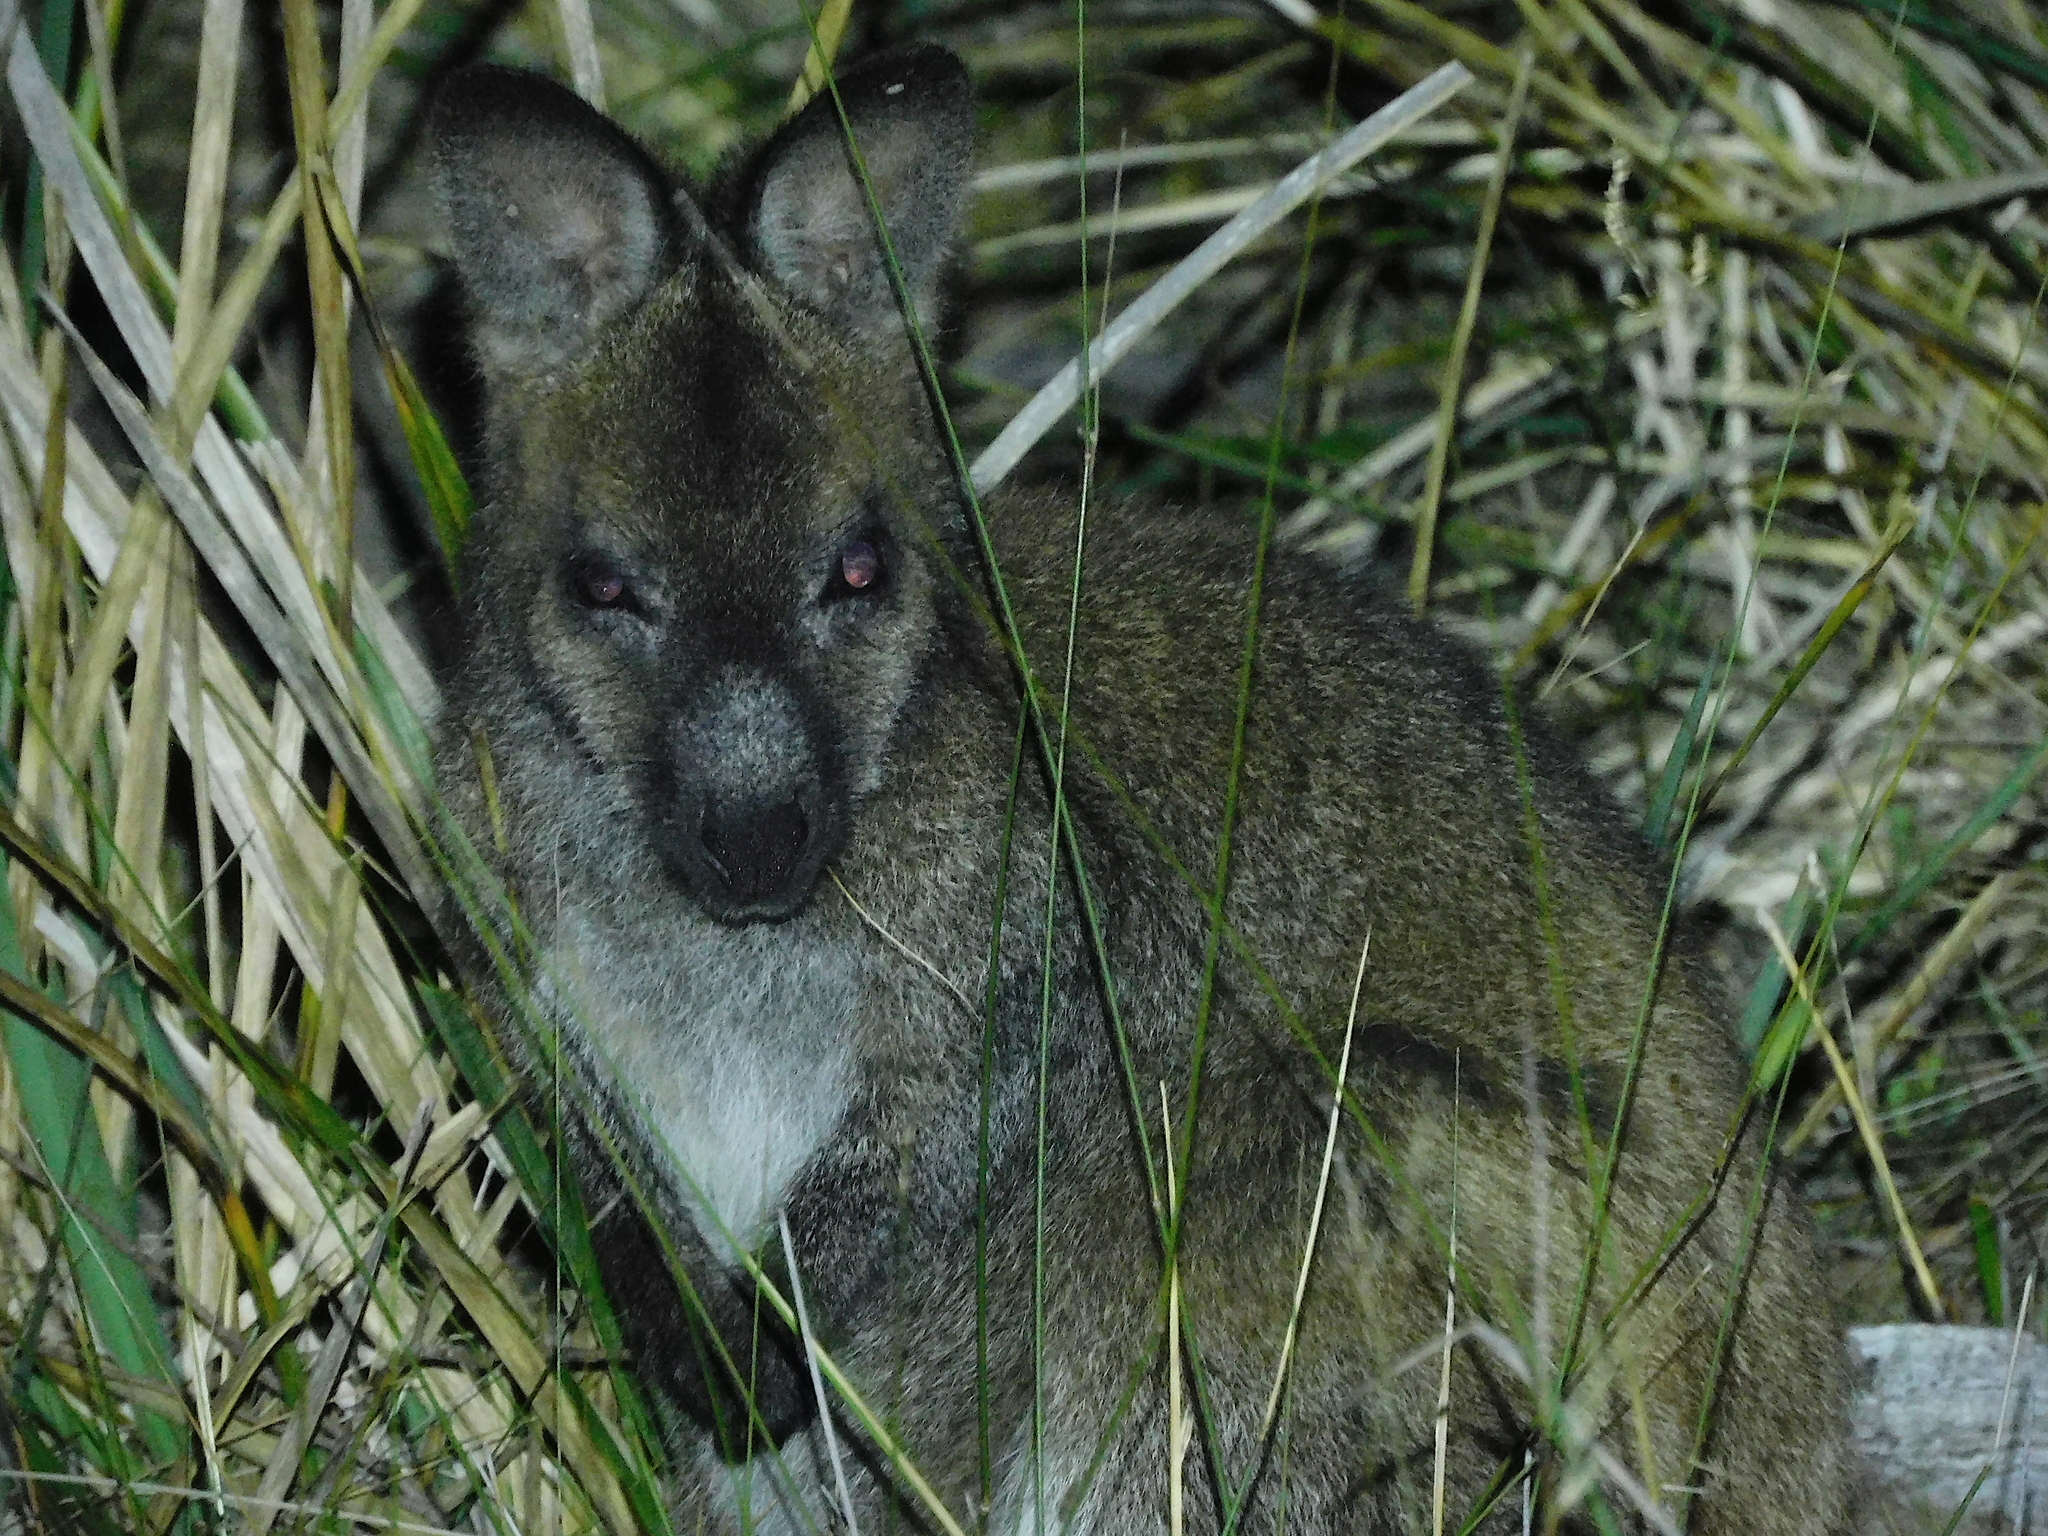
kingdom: Animalia
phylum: Chordata
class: Mammalia
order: Diprotodontia
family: Macropodidae
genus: Notamacropus
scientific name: Notamacropus rufogriseus
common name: Red-necked wallaby
